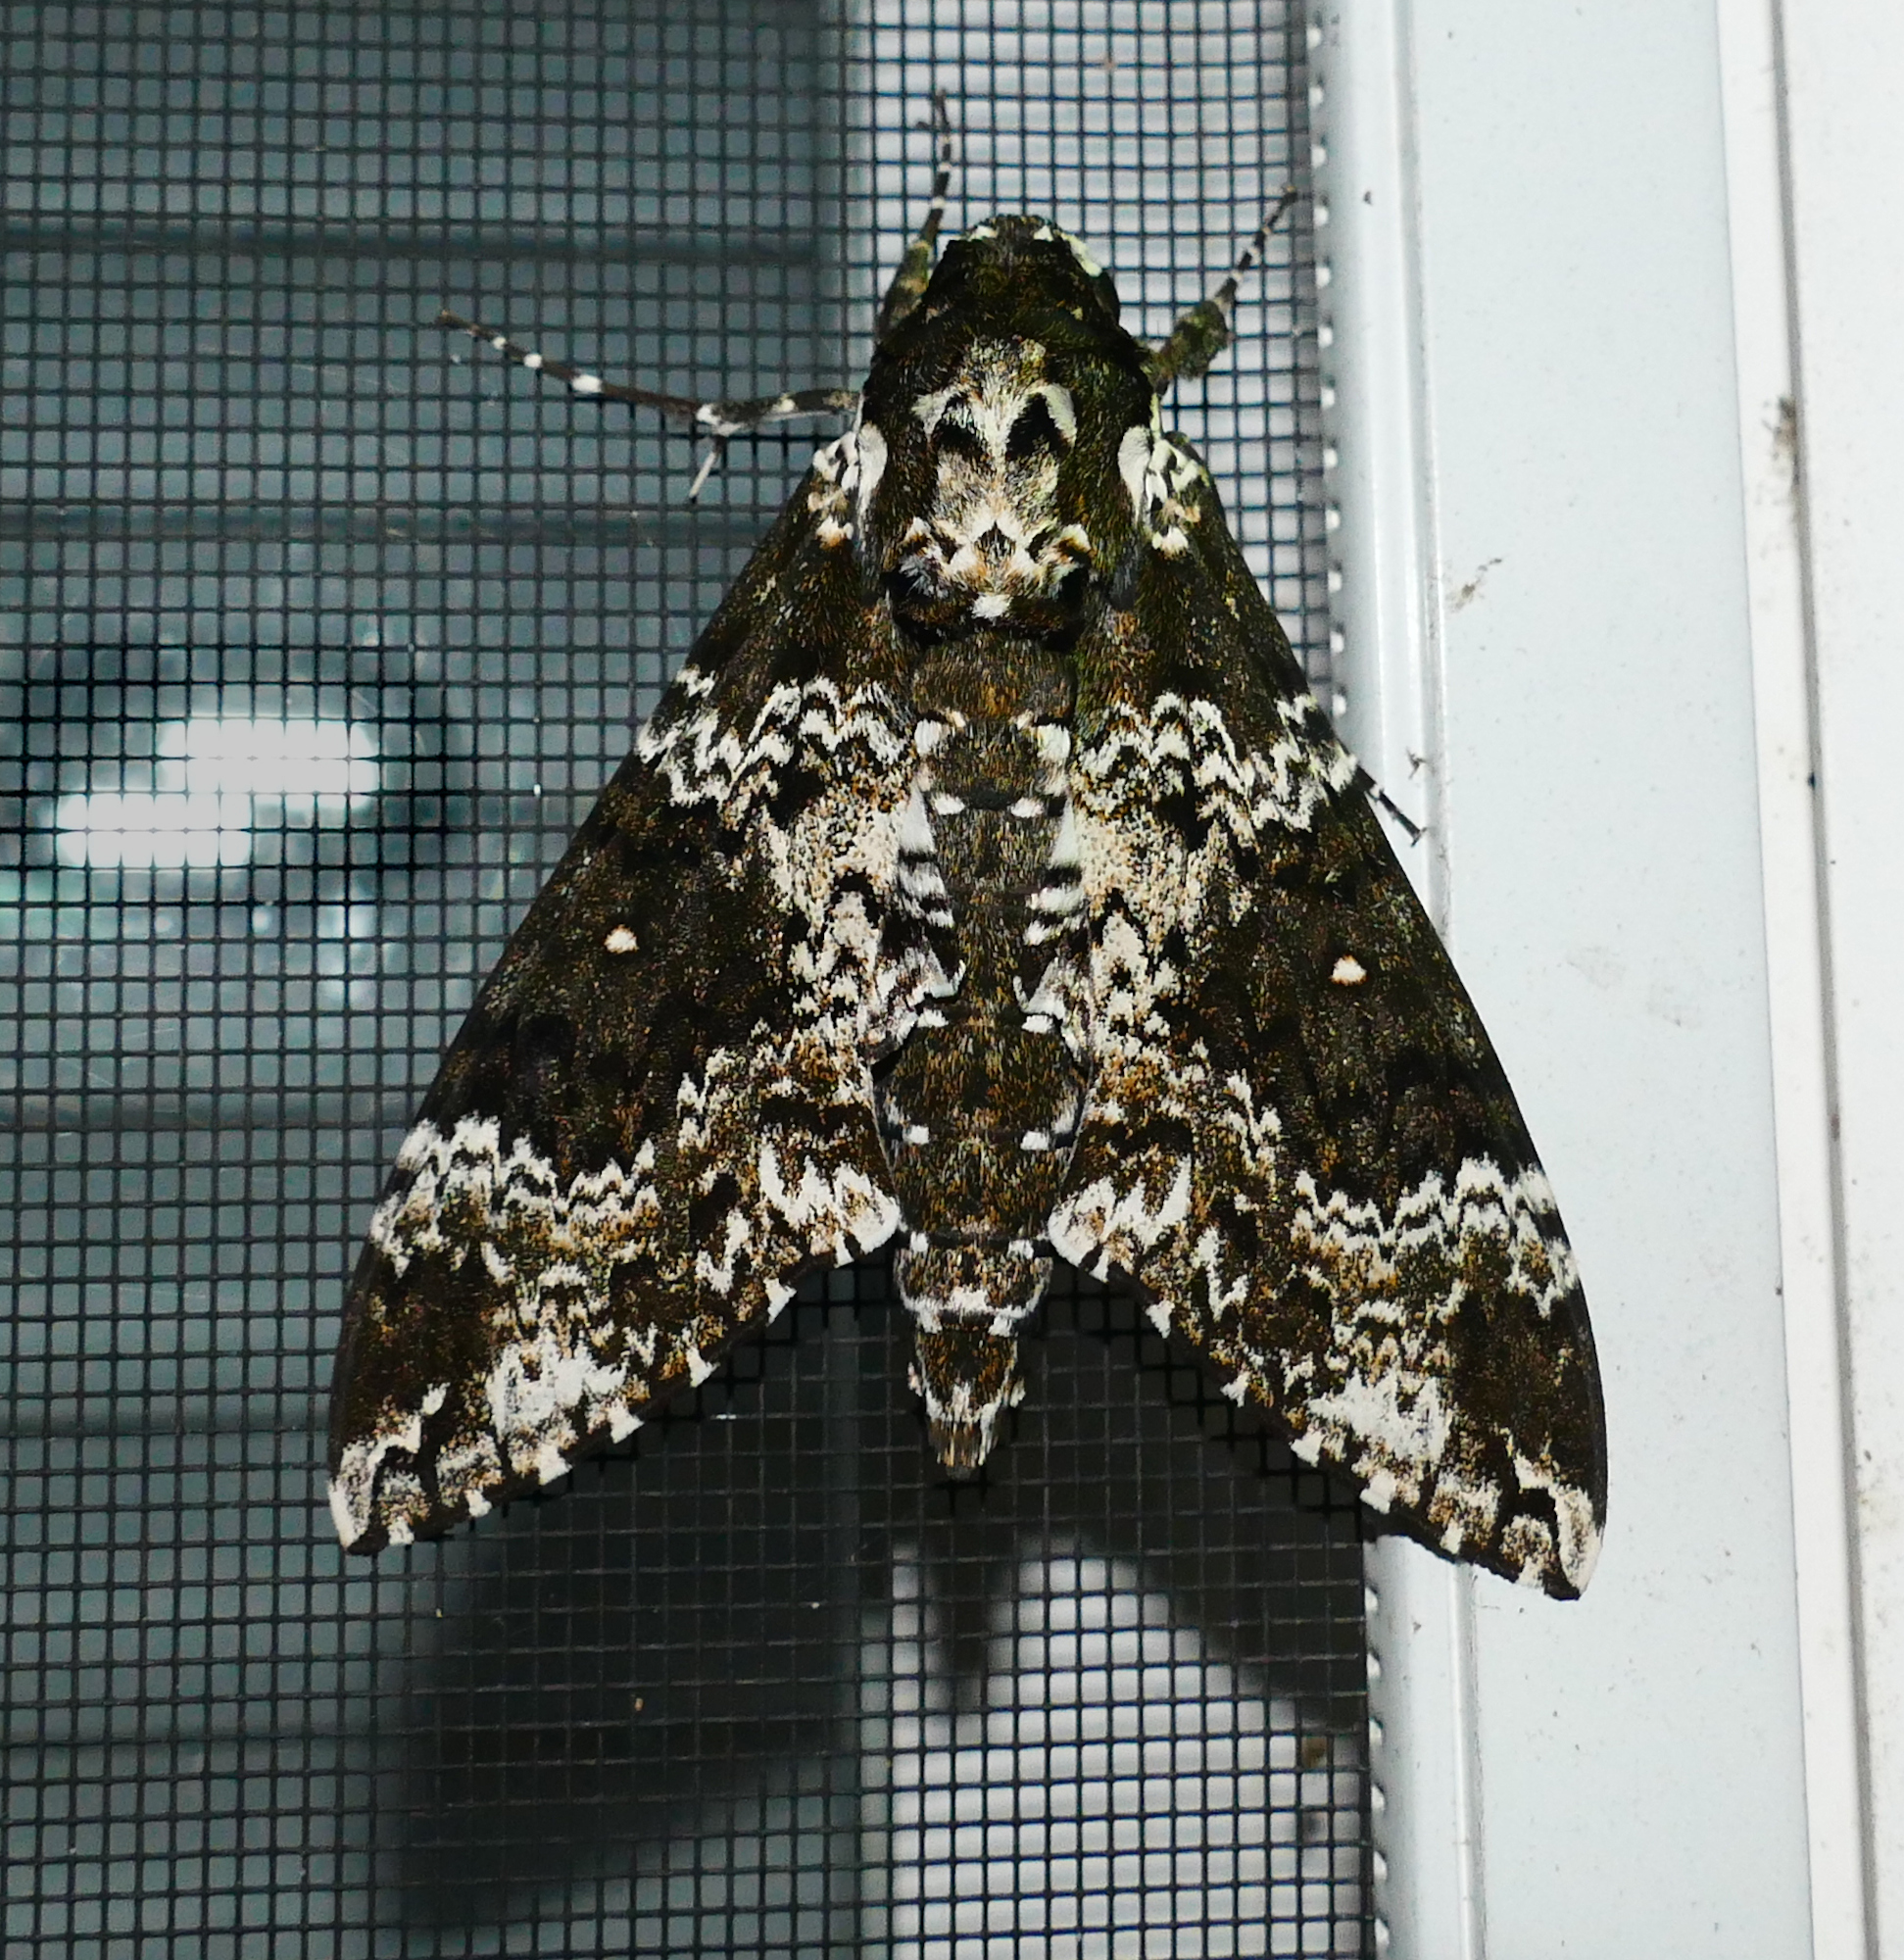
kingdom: Animalia
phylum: Arthropoda
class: Insecta
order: Lepidoptera
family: Sphingidae
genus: Manduca
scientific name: Manduca rustica
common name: Rustic sphinx
